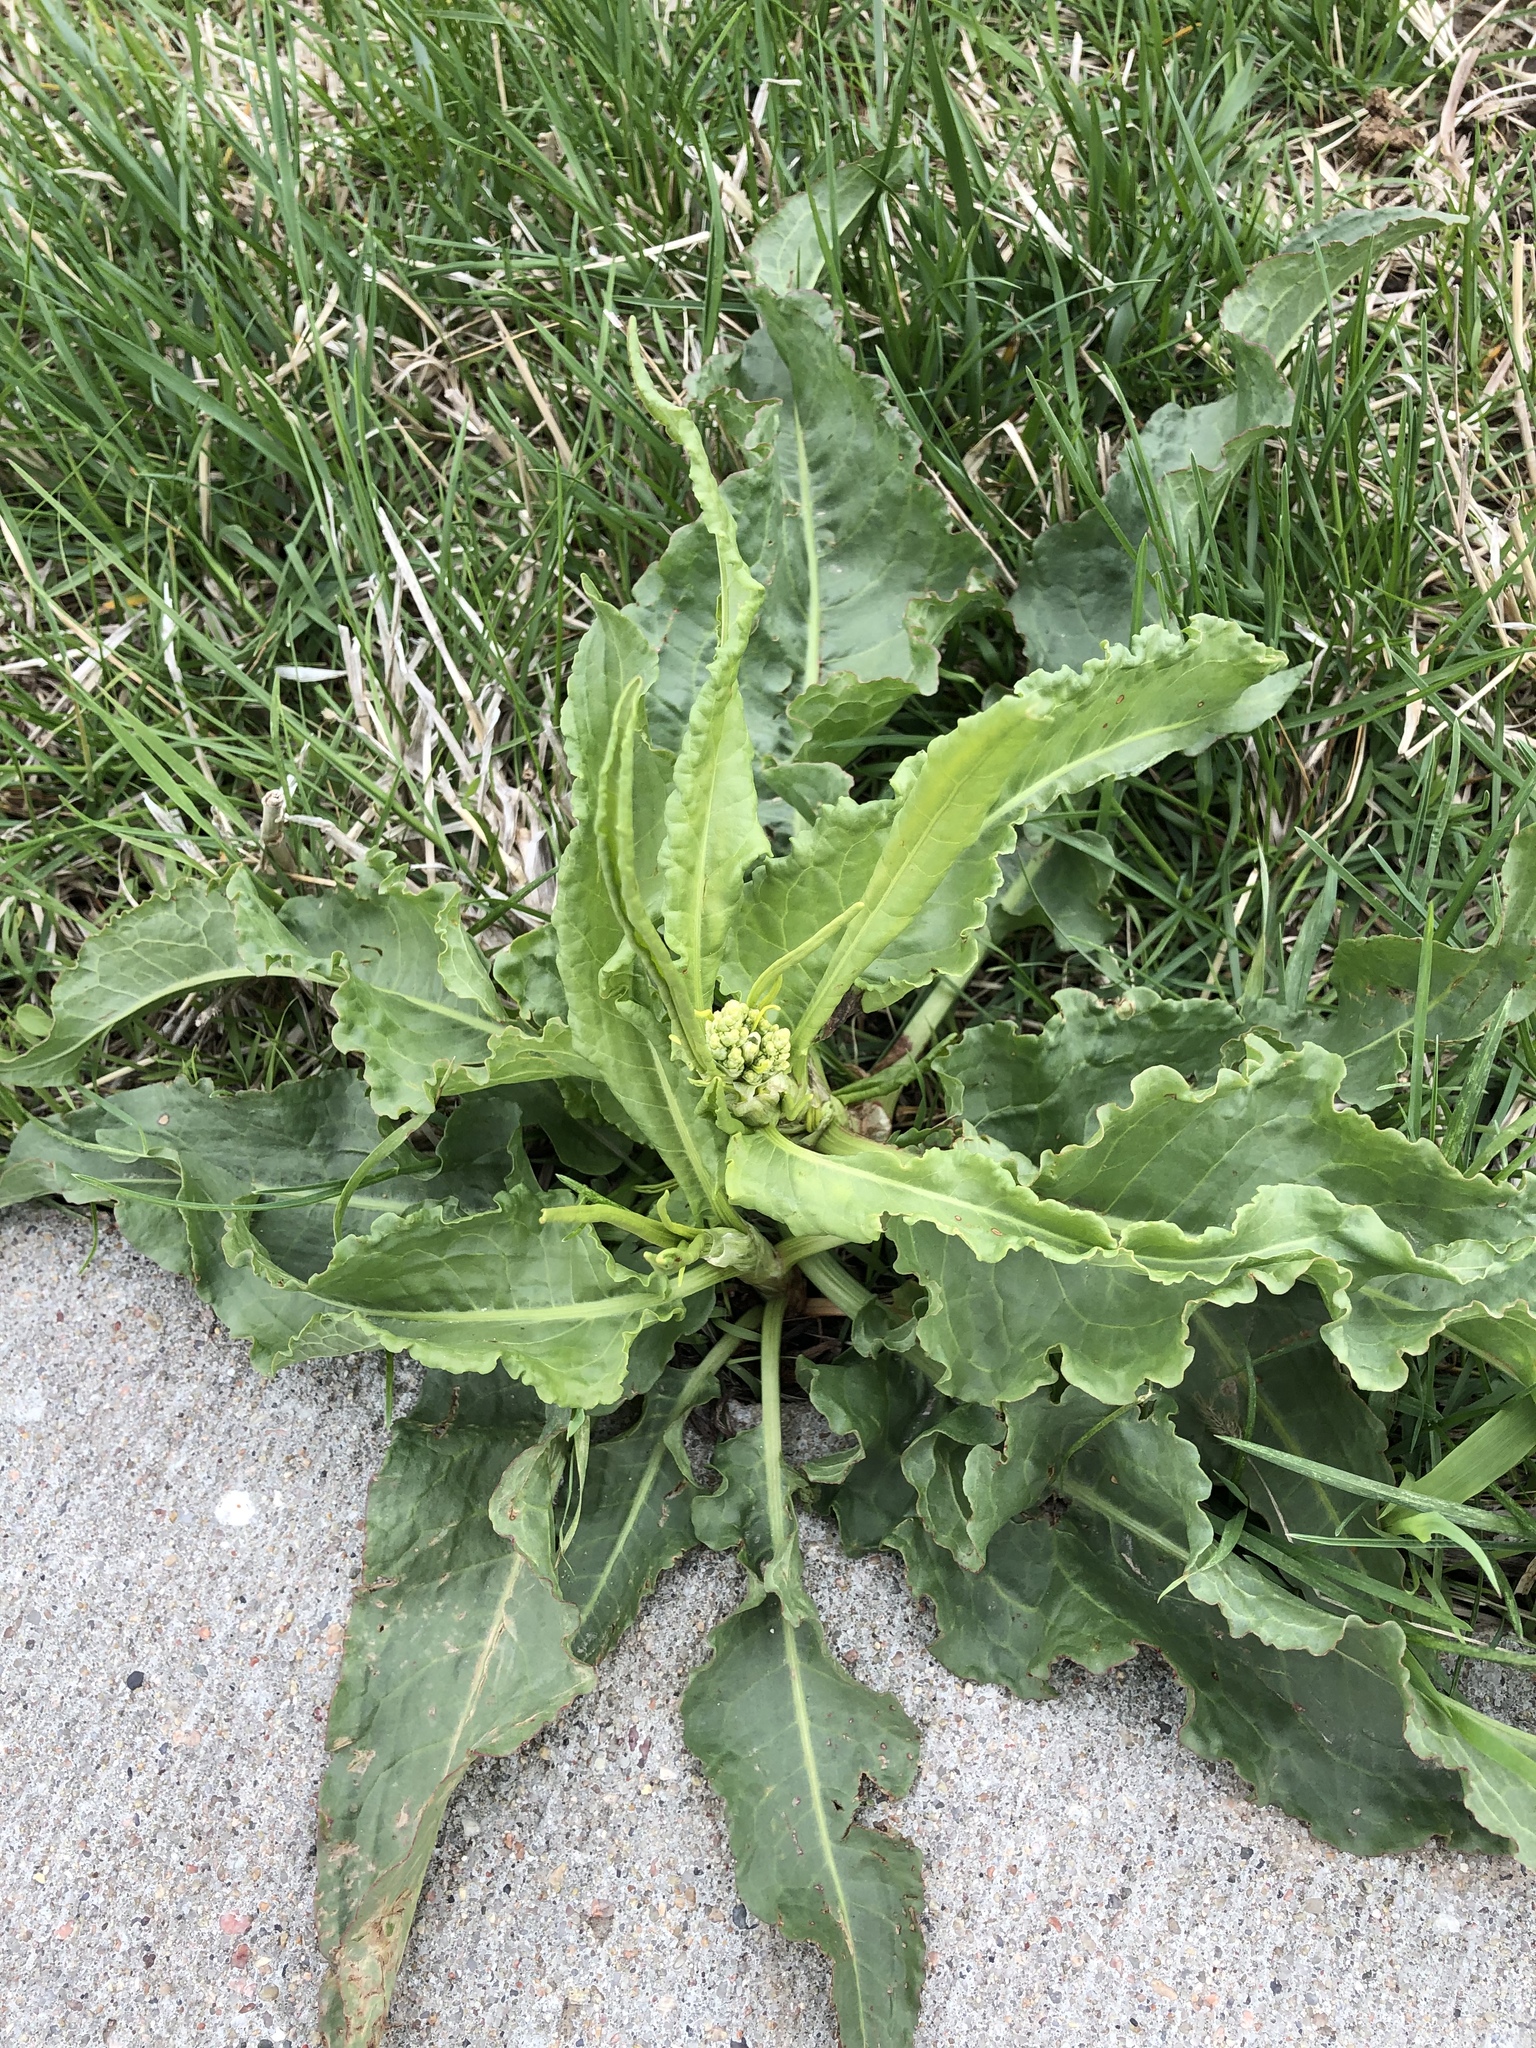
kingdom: Plantae
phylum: Tracheophyta
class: Magnoliopsida
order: Caryophyllales
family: Polygonaceae
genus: Rumex
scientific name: Rumex crispus
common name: Curled dock
